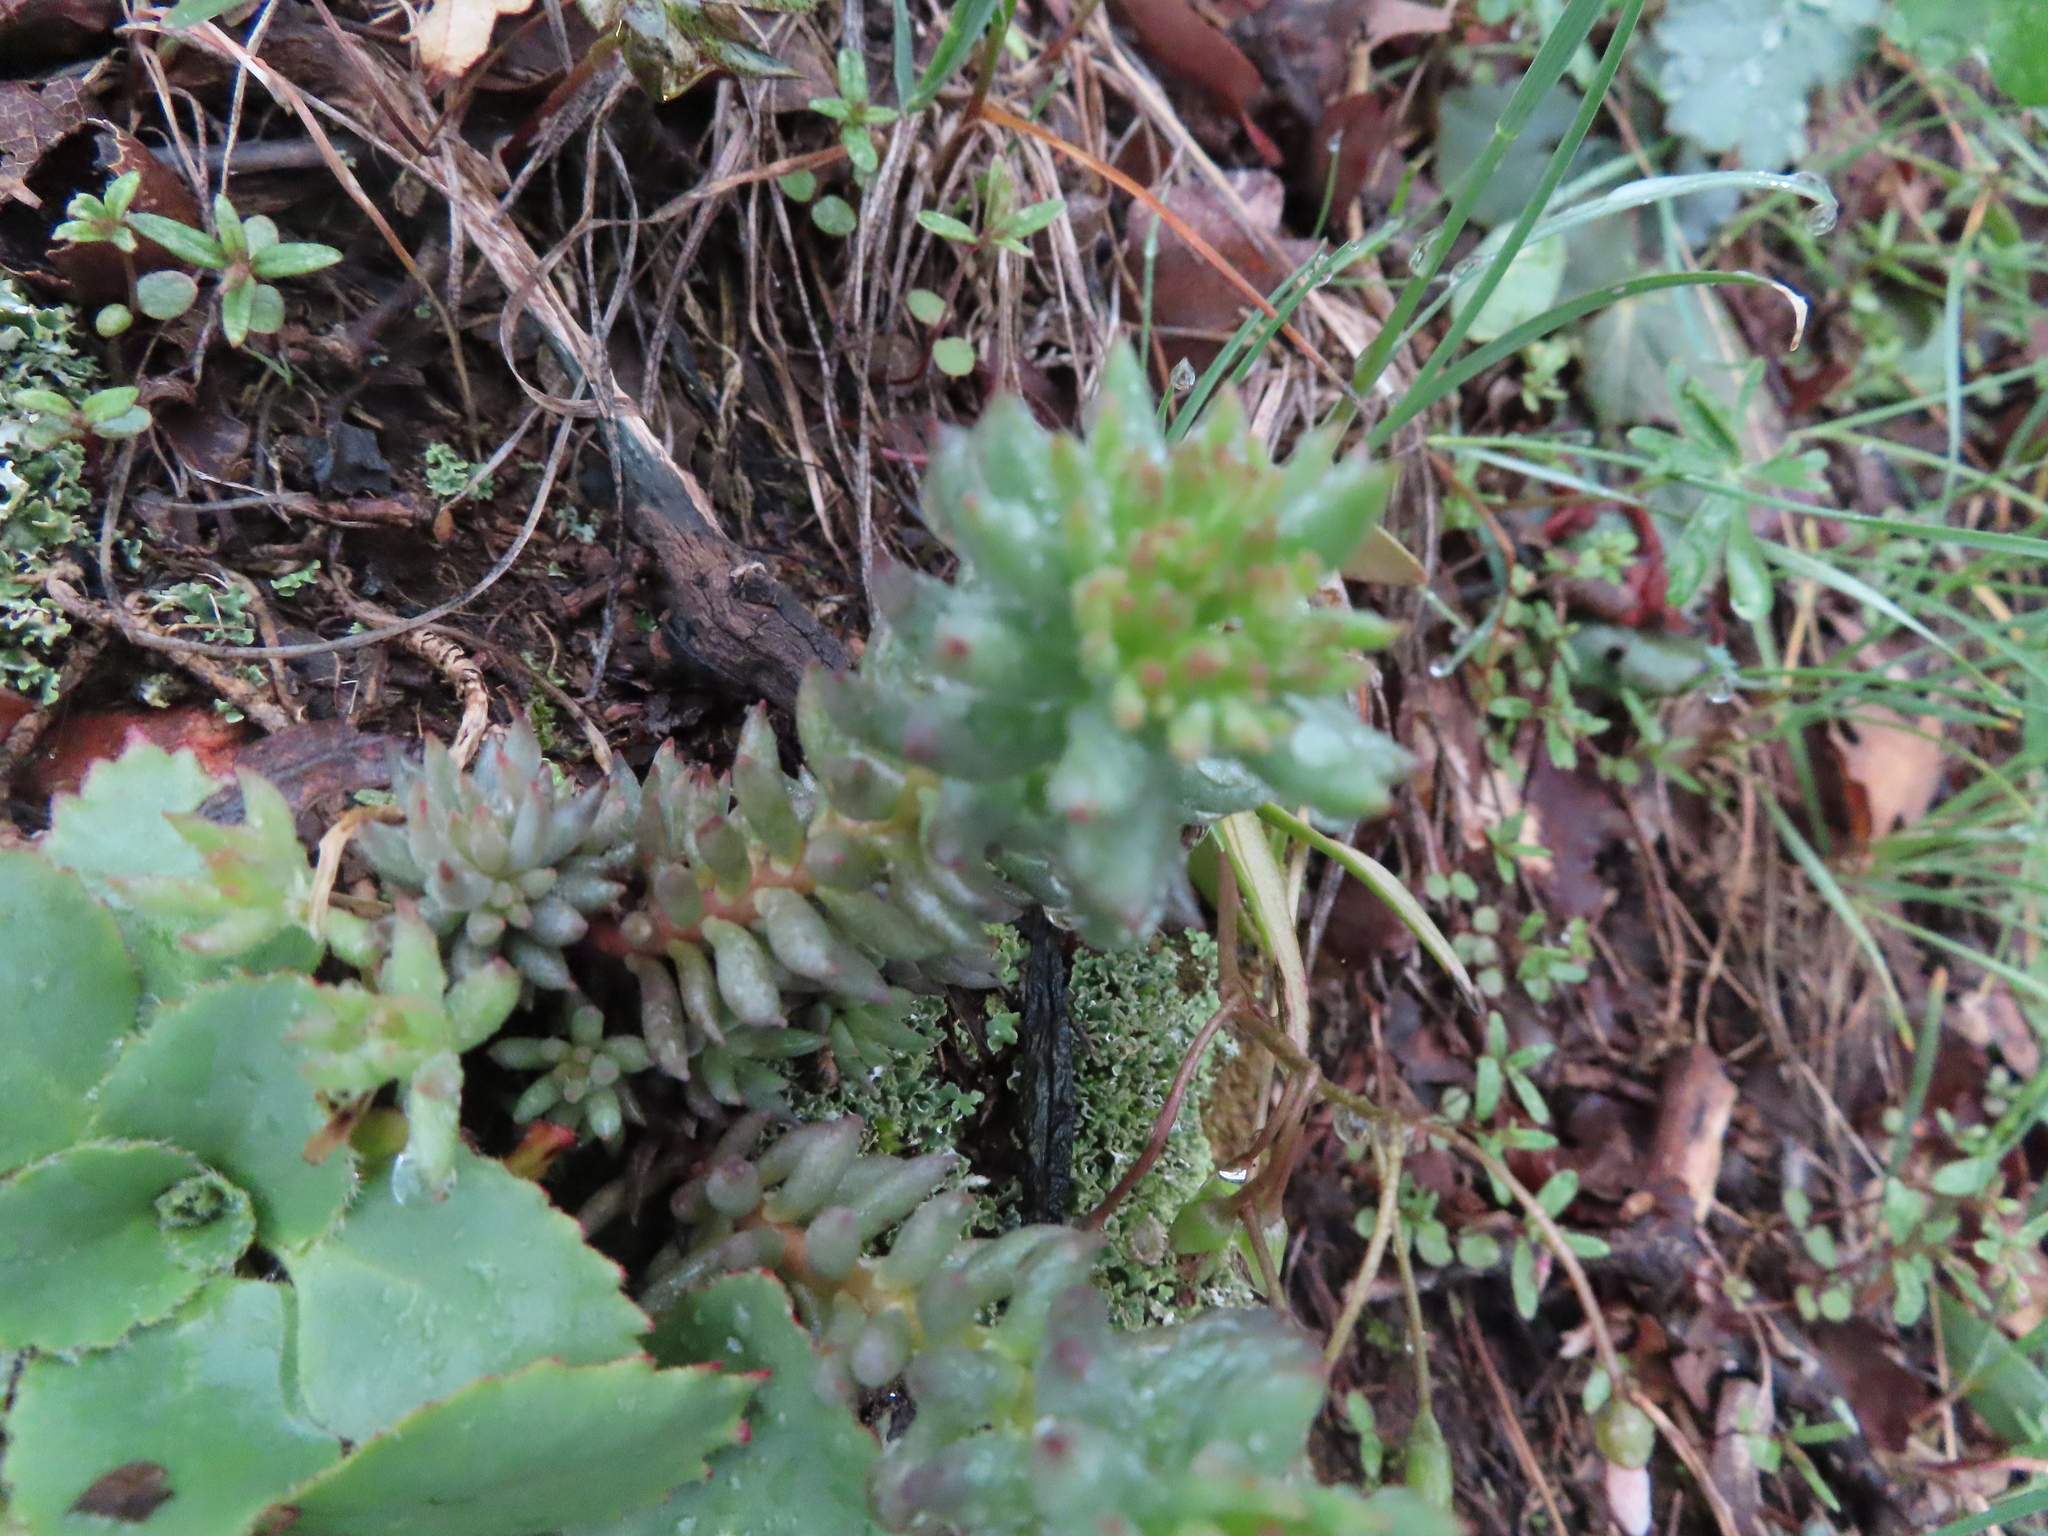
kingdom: Plantae
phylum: Tracheophyta
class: Magnoliopsida
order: Saxifragales
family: Crassulaceae
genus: Sedum
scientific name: Sedum lanceolatum
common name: Common stonecrop
